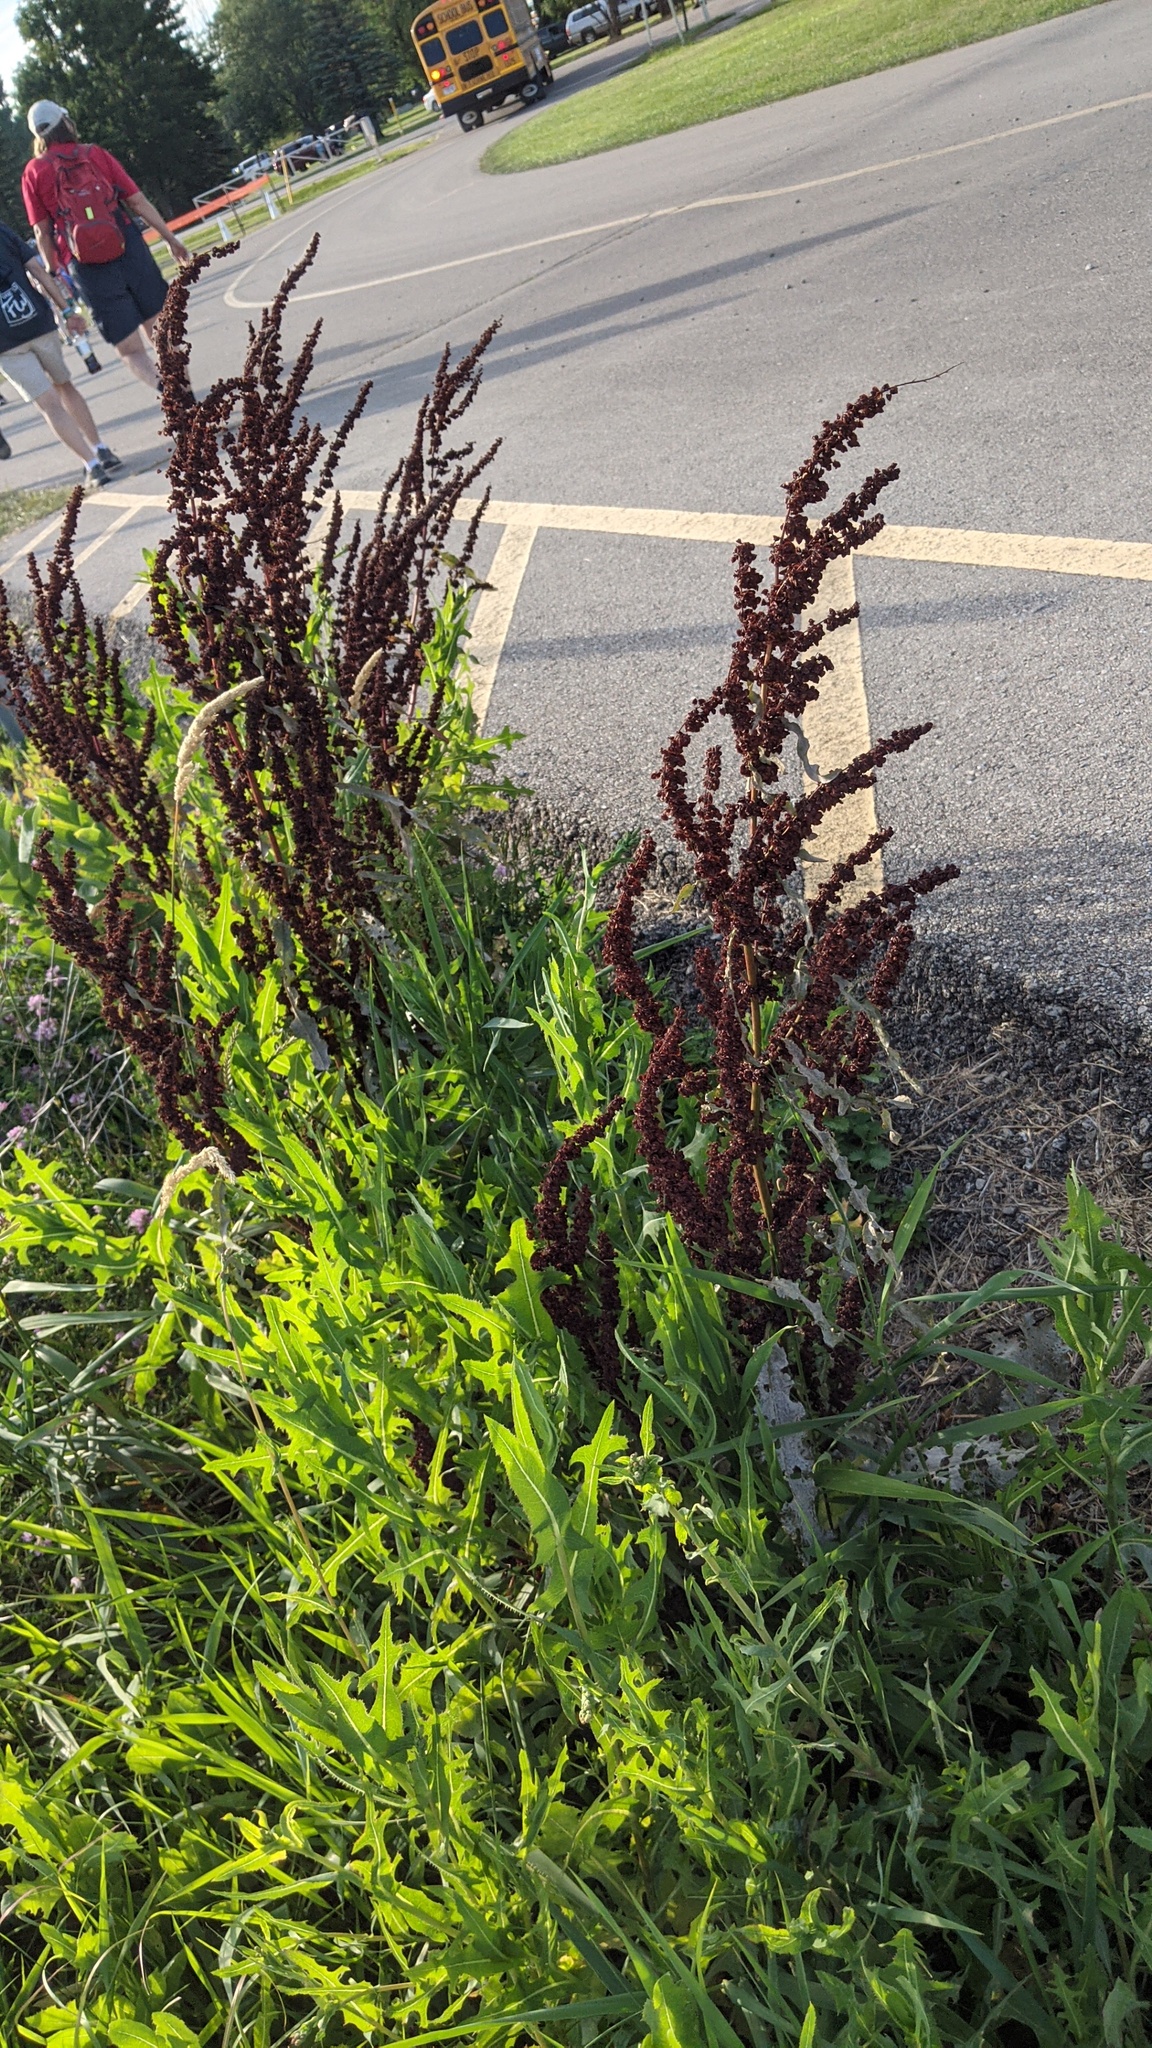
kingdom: Plantae
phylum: Tracheophyta
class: Magnoliopsida
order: Caryophyllales
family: Polygonaceae
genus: Rumex
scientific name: Rumex crispus
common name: Curled dock
